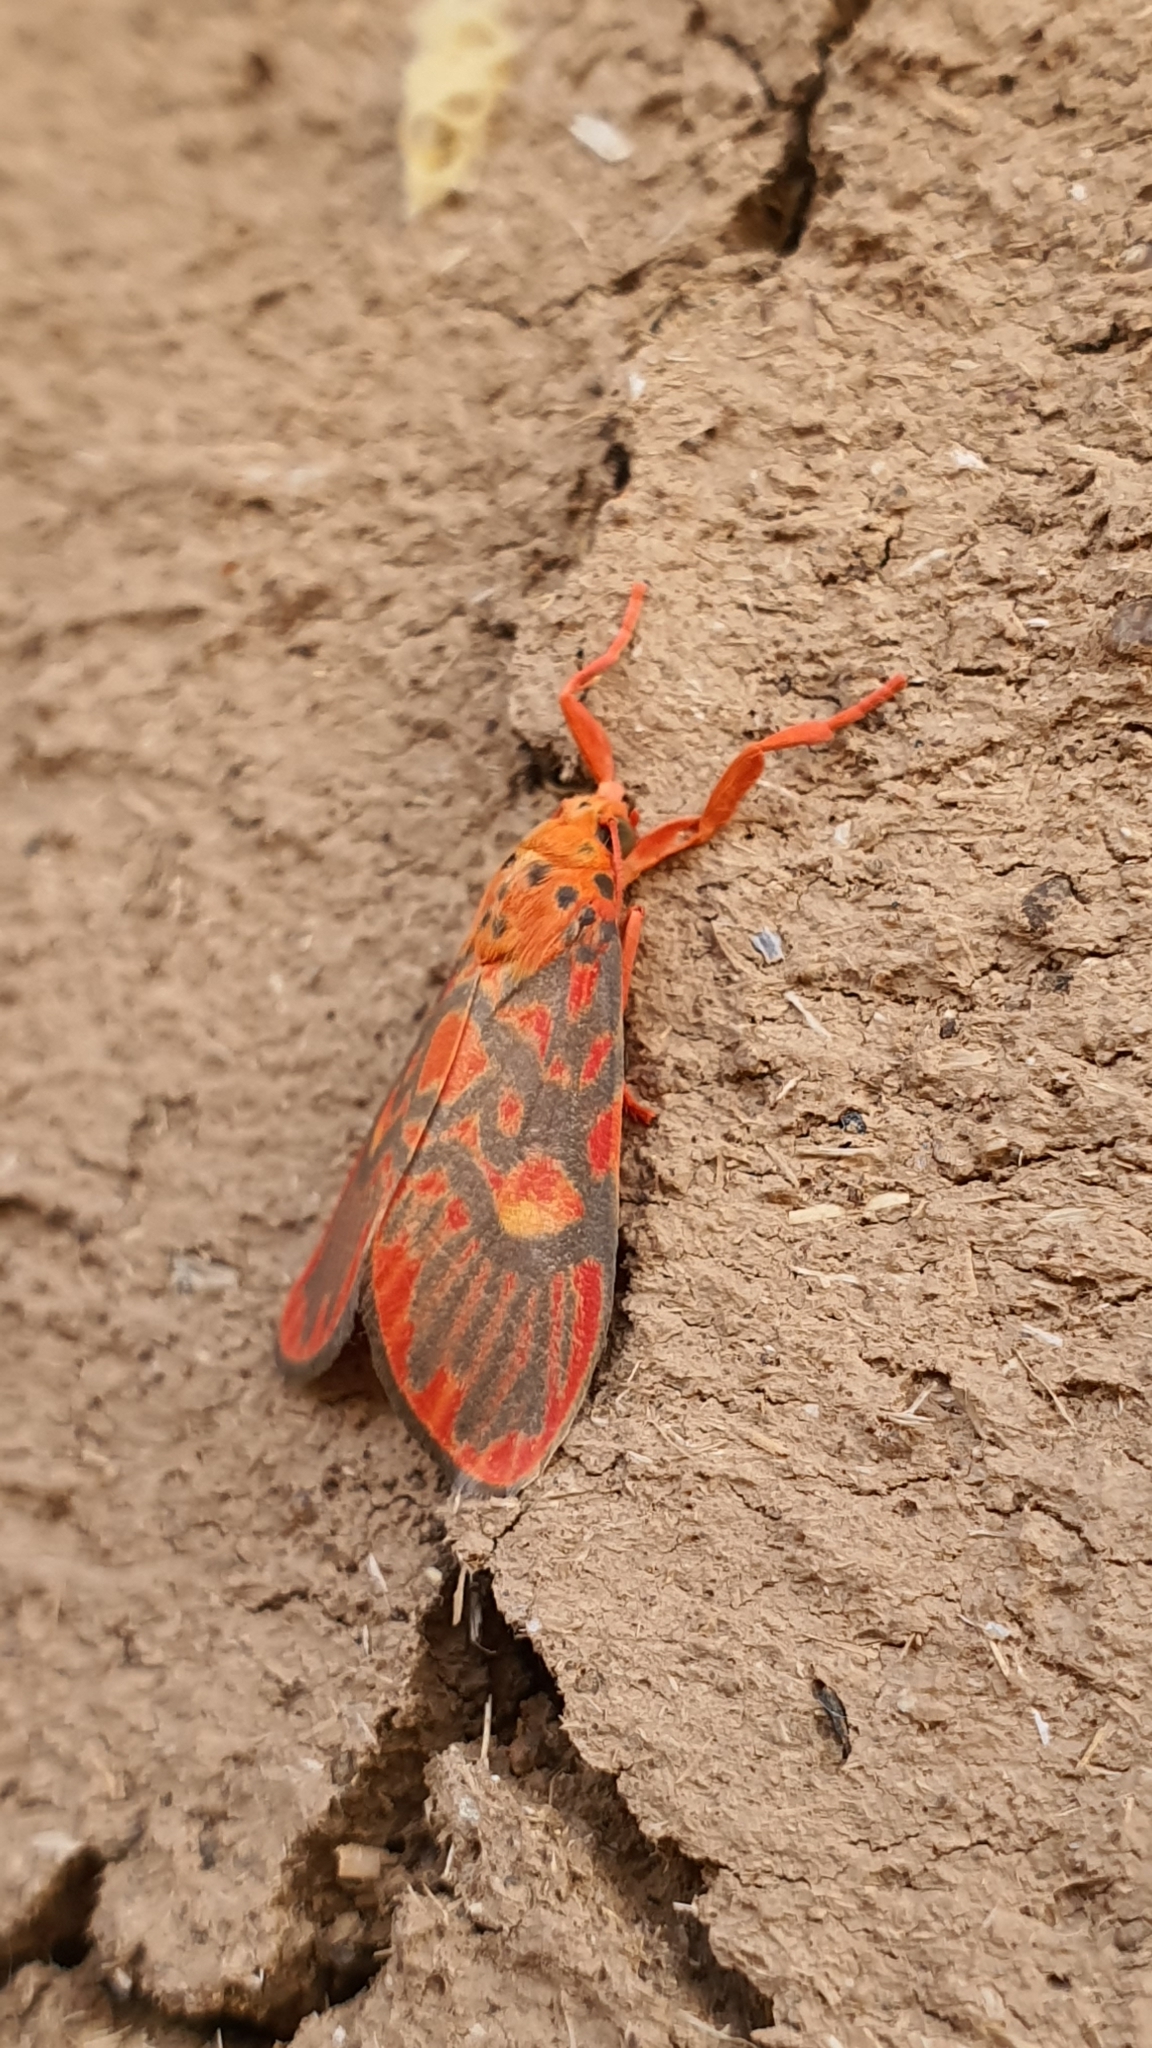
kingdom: Animalia
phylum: Arthropoda
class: Insecta
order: Lepidoptera
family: Erebidae
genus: Ammatho
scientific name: Ammatho cuneonotatus
